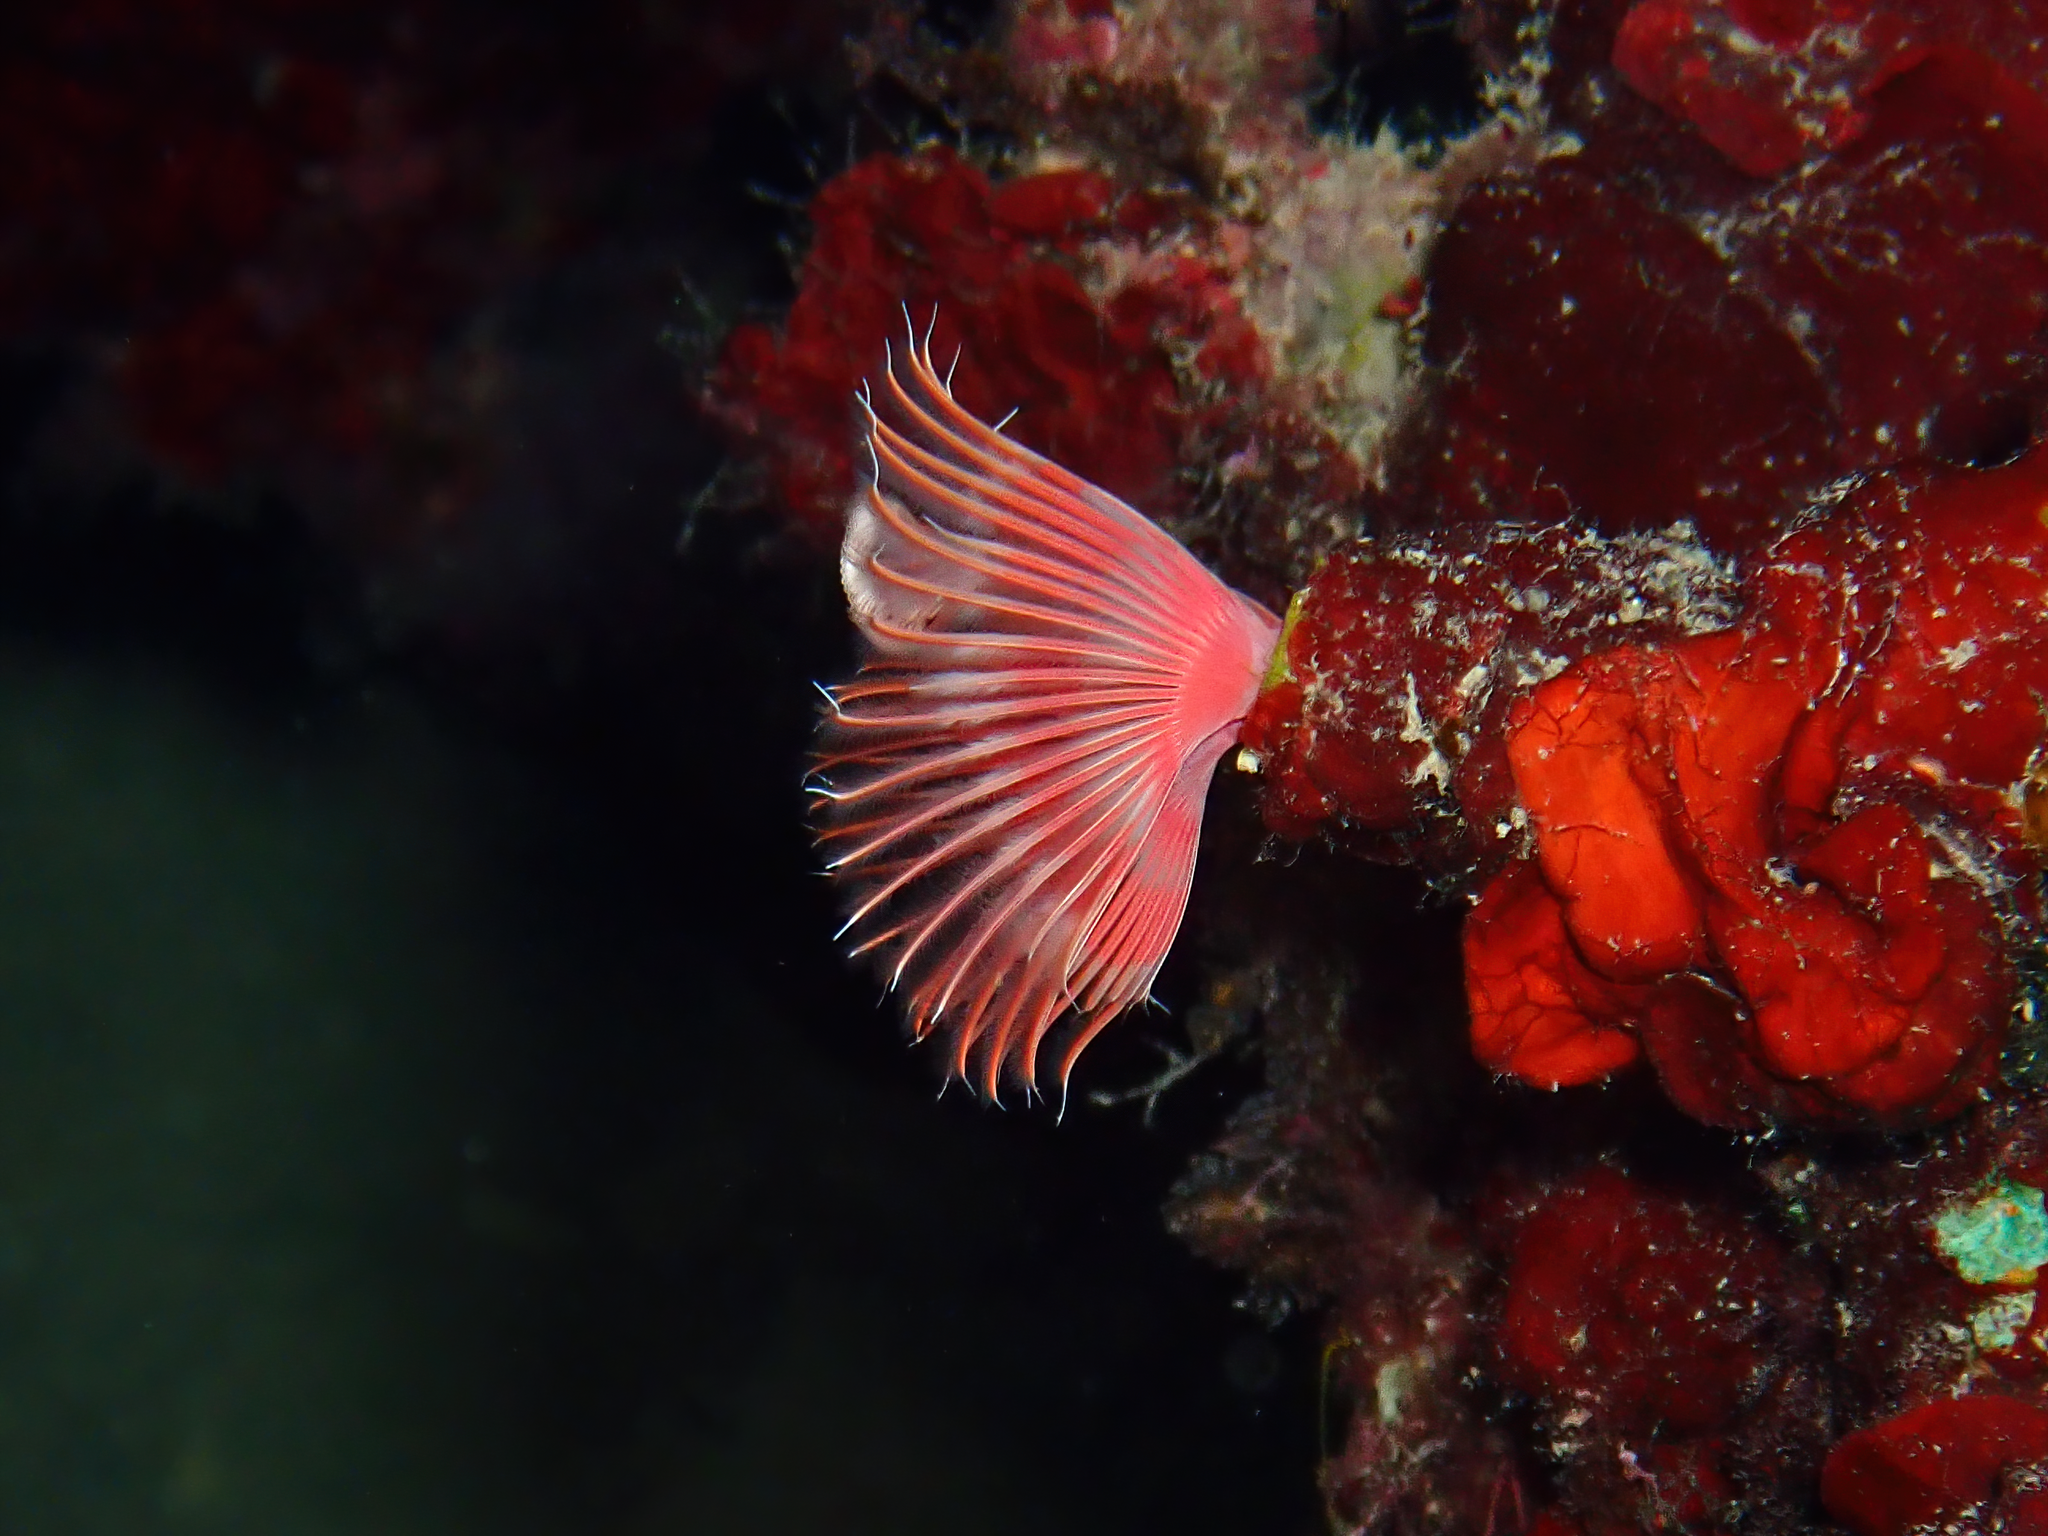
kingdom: Animalia
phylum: Annelida
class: Polychaeta
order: Sabellida
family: Serpulidae
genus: Serpula
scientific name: Serpula vermicularis
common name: Calcareous tubeworm
